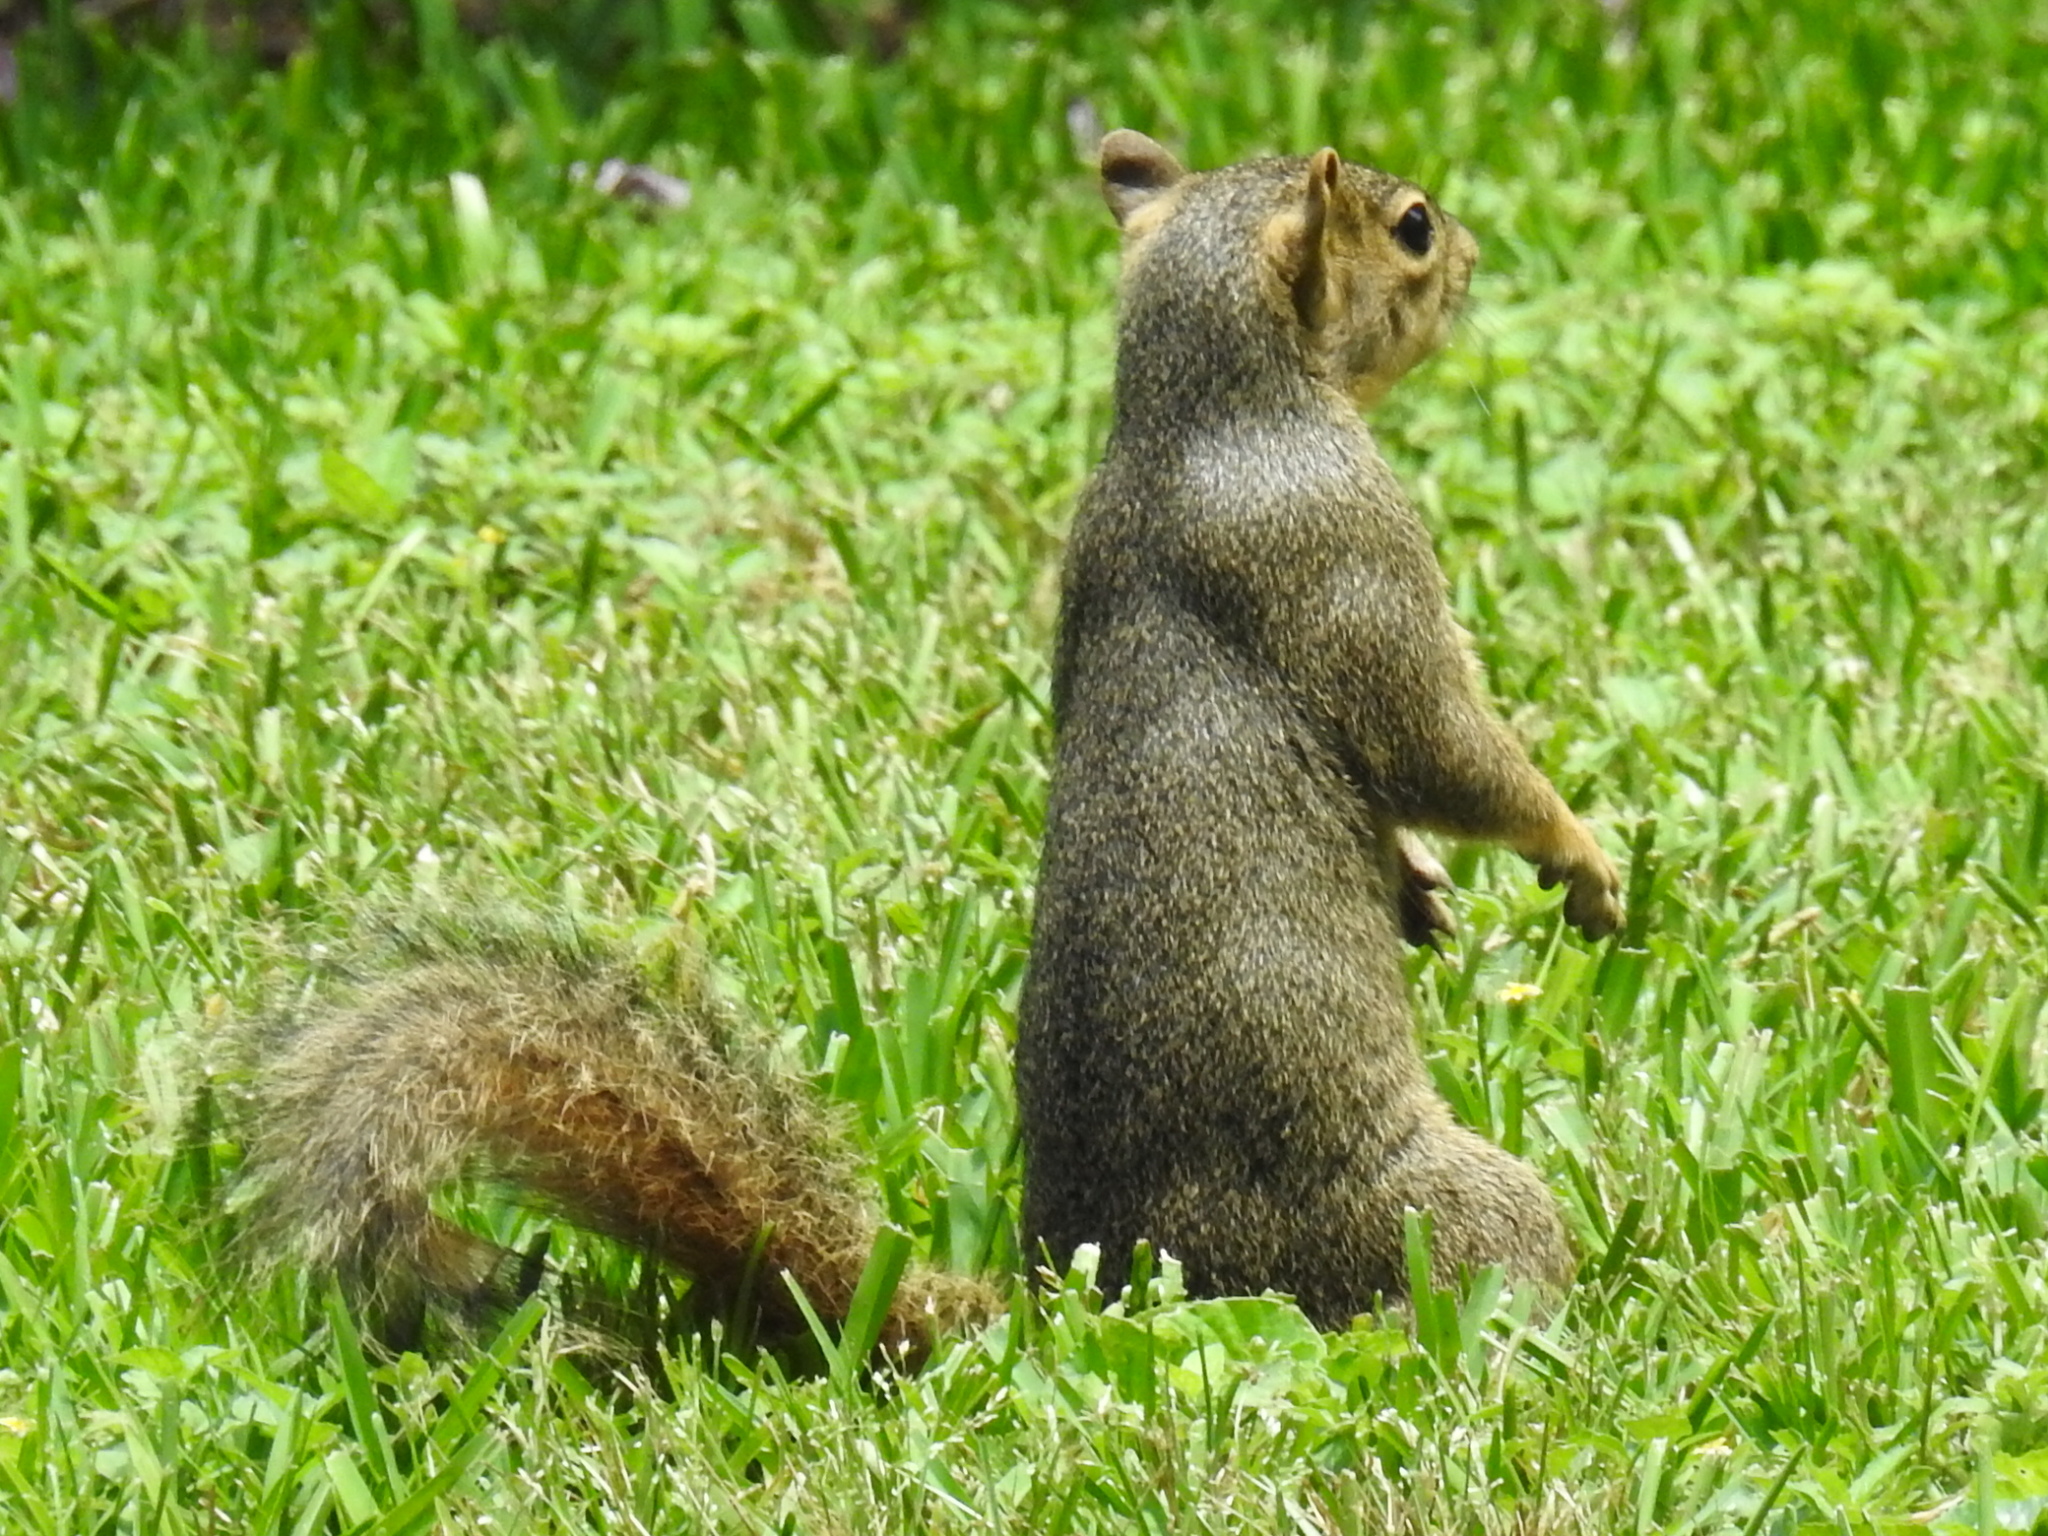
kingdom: Animalia
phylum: Chordata
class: Mammalia
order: Rodentia
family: Sciuridae
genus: Sciurus
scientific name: Sciurus niger
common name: Fox squirrel
